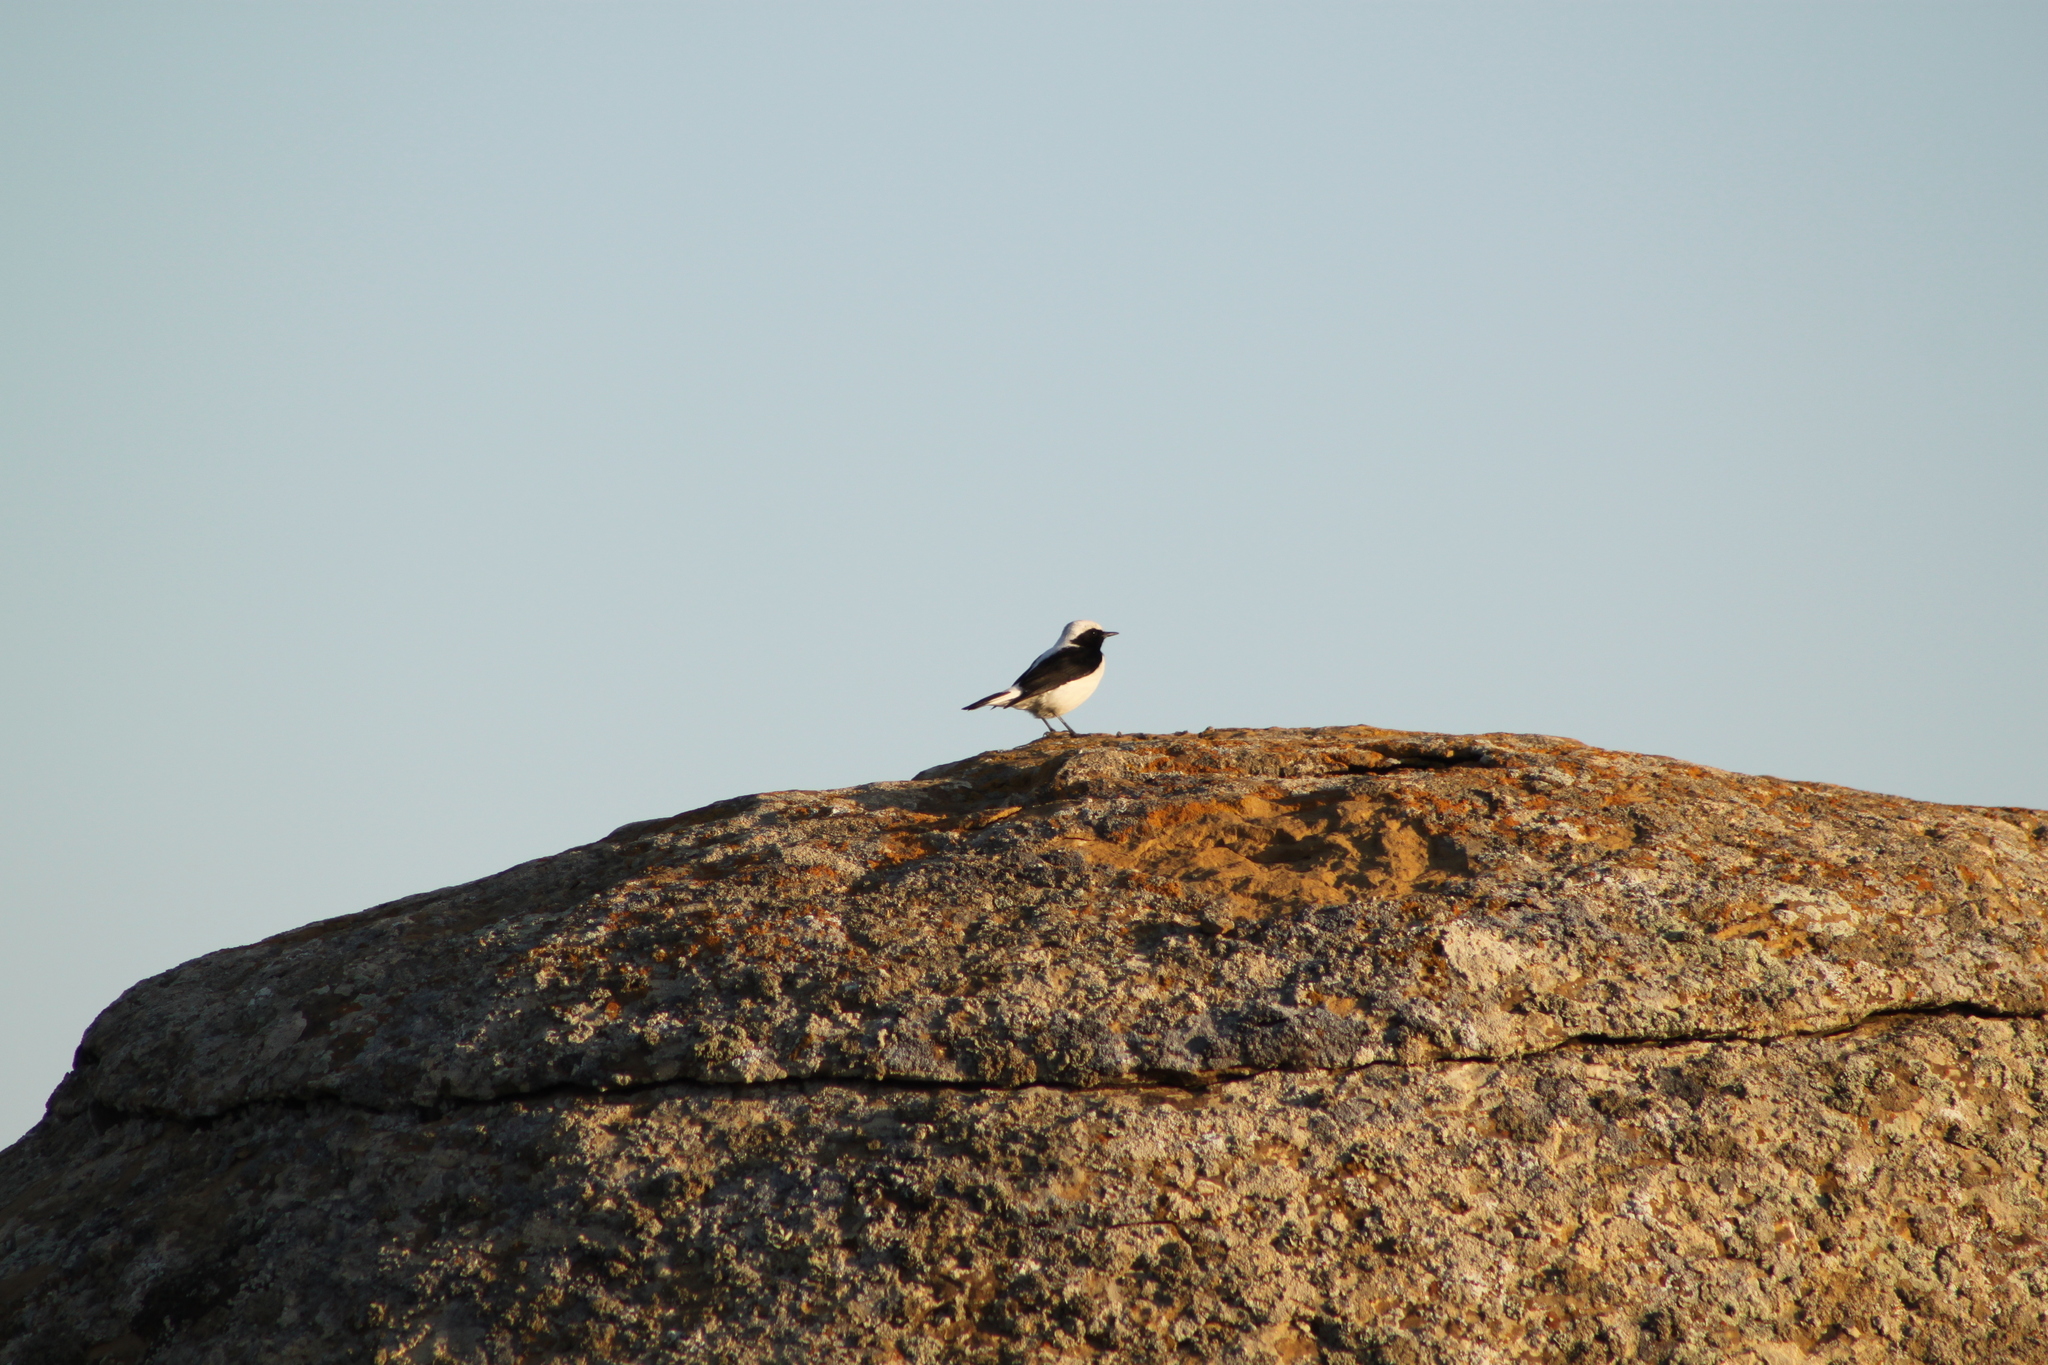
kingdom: Animalia
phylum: Chordata
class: Aves
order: Passeriformes
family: Muscicapidae
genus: Oenanthe
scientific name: Oenanthe finschii
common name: Finsch's wheatear
